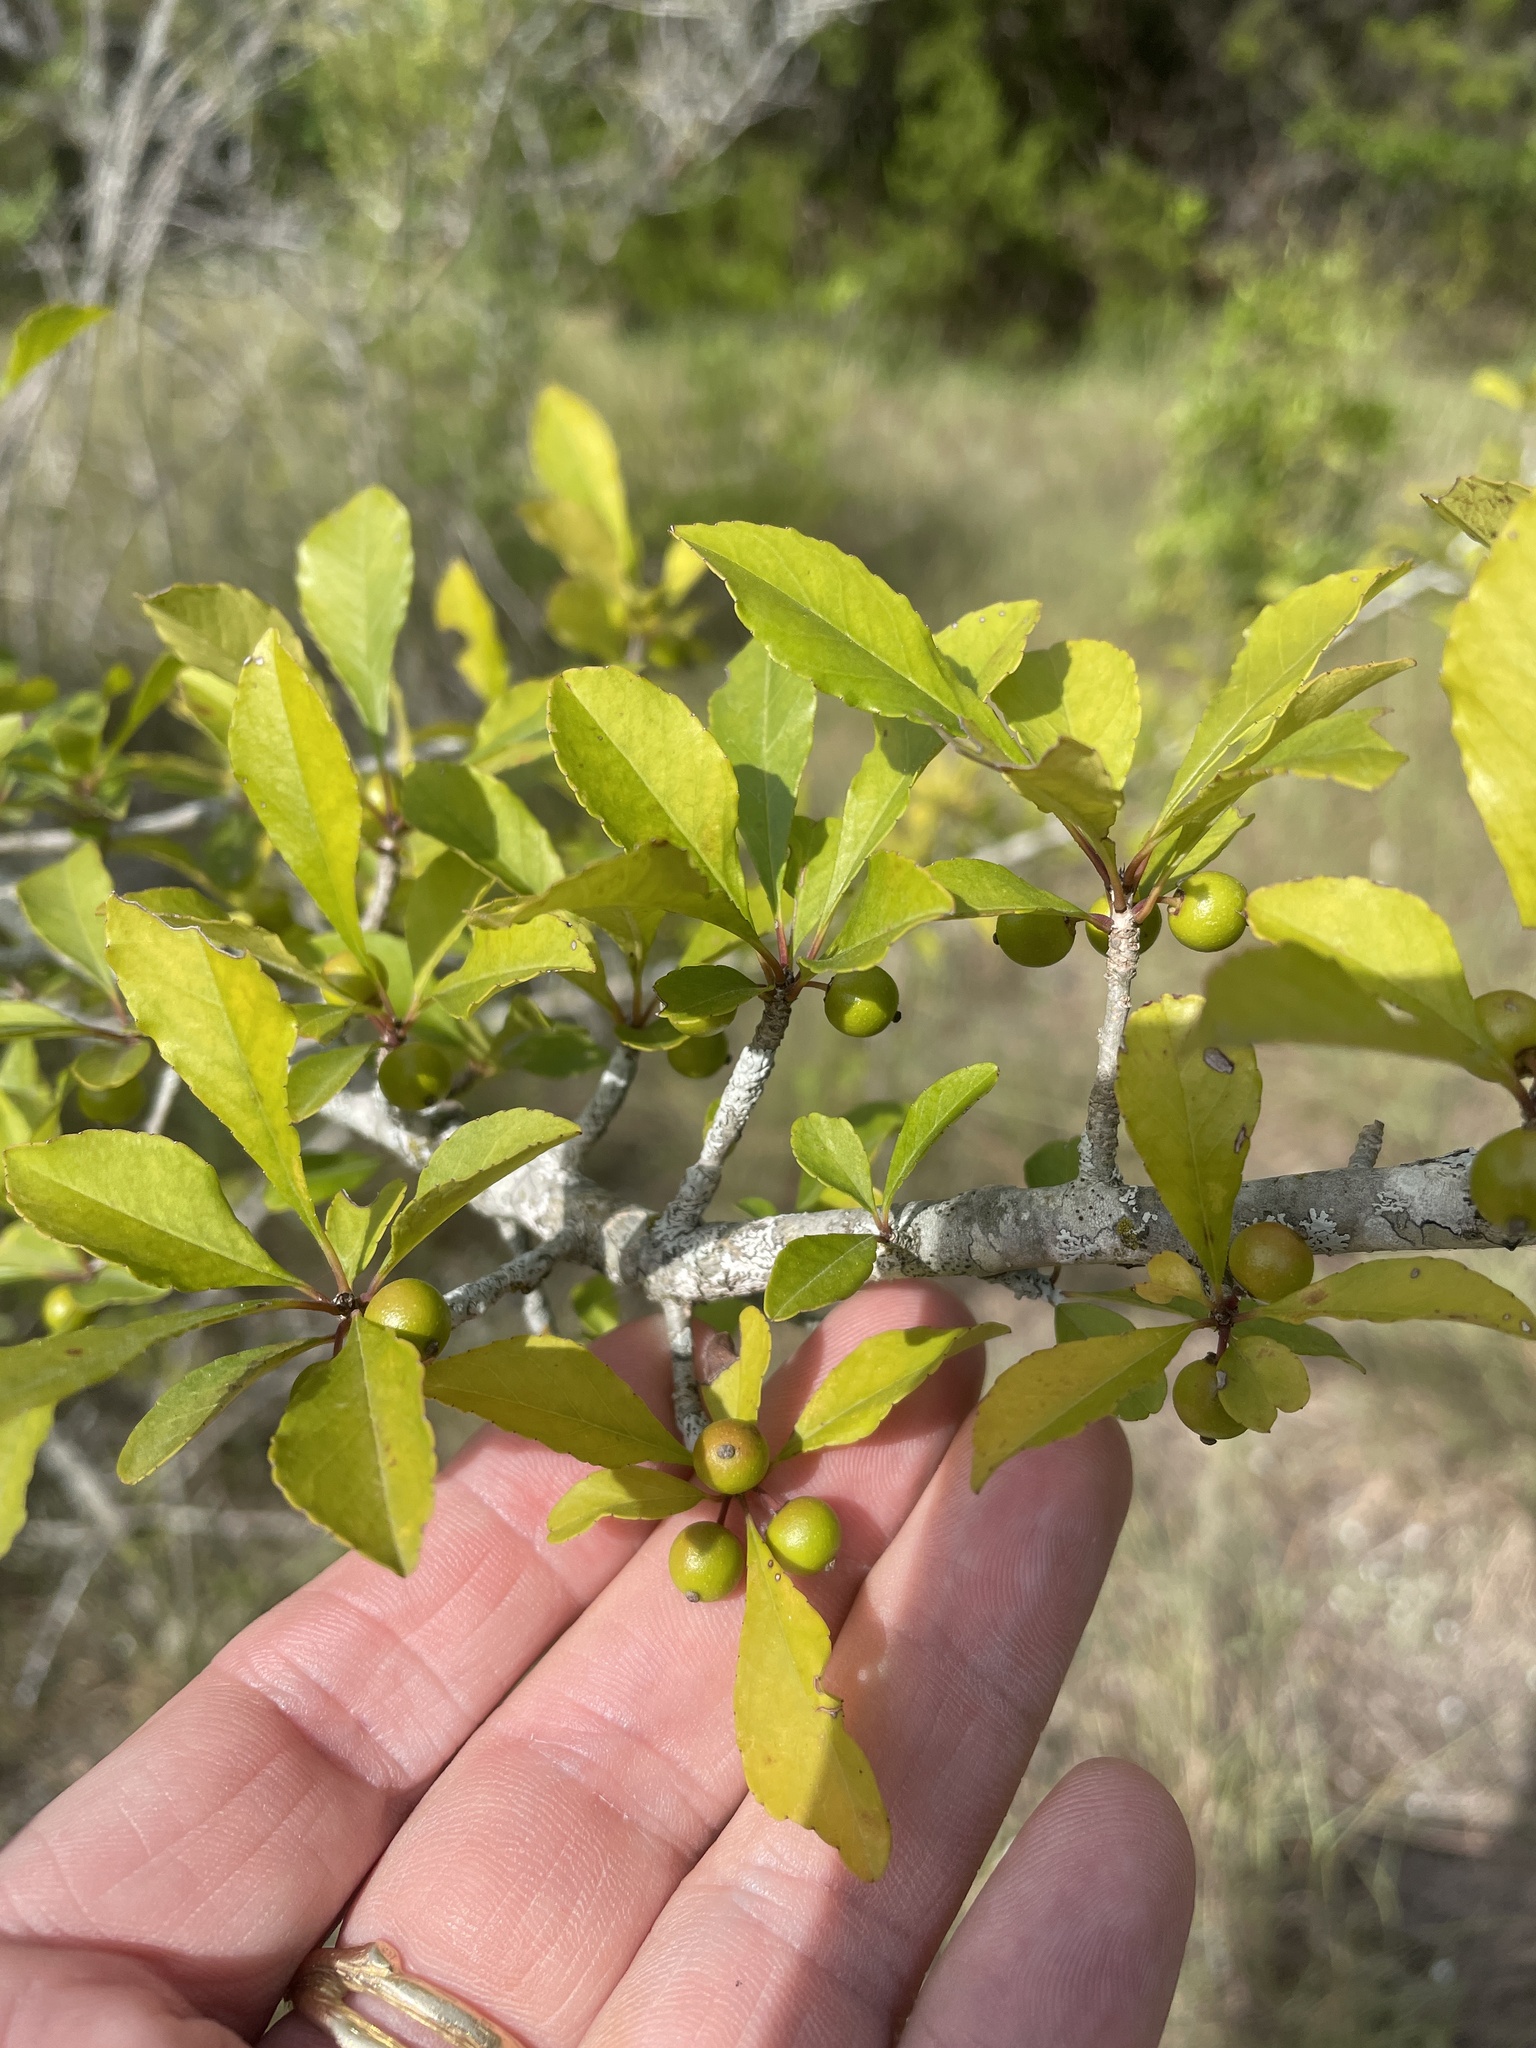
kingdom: Plantae
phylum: Tracheophyta
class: Magnoliopsida
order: Aquifoliales
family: Aquifoliaceae
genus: Ilex
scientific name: Ilex decidua
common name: Possum-haw
